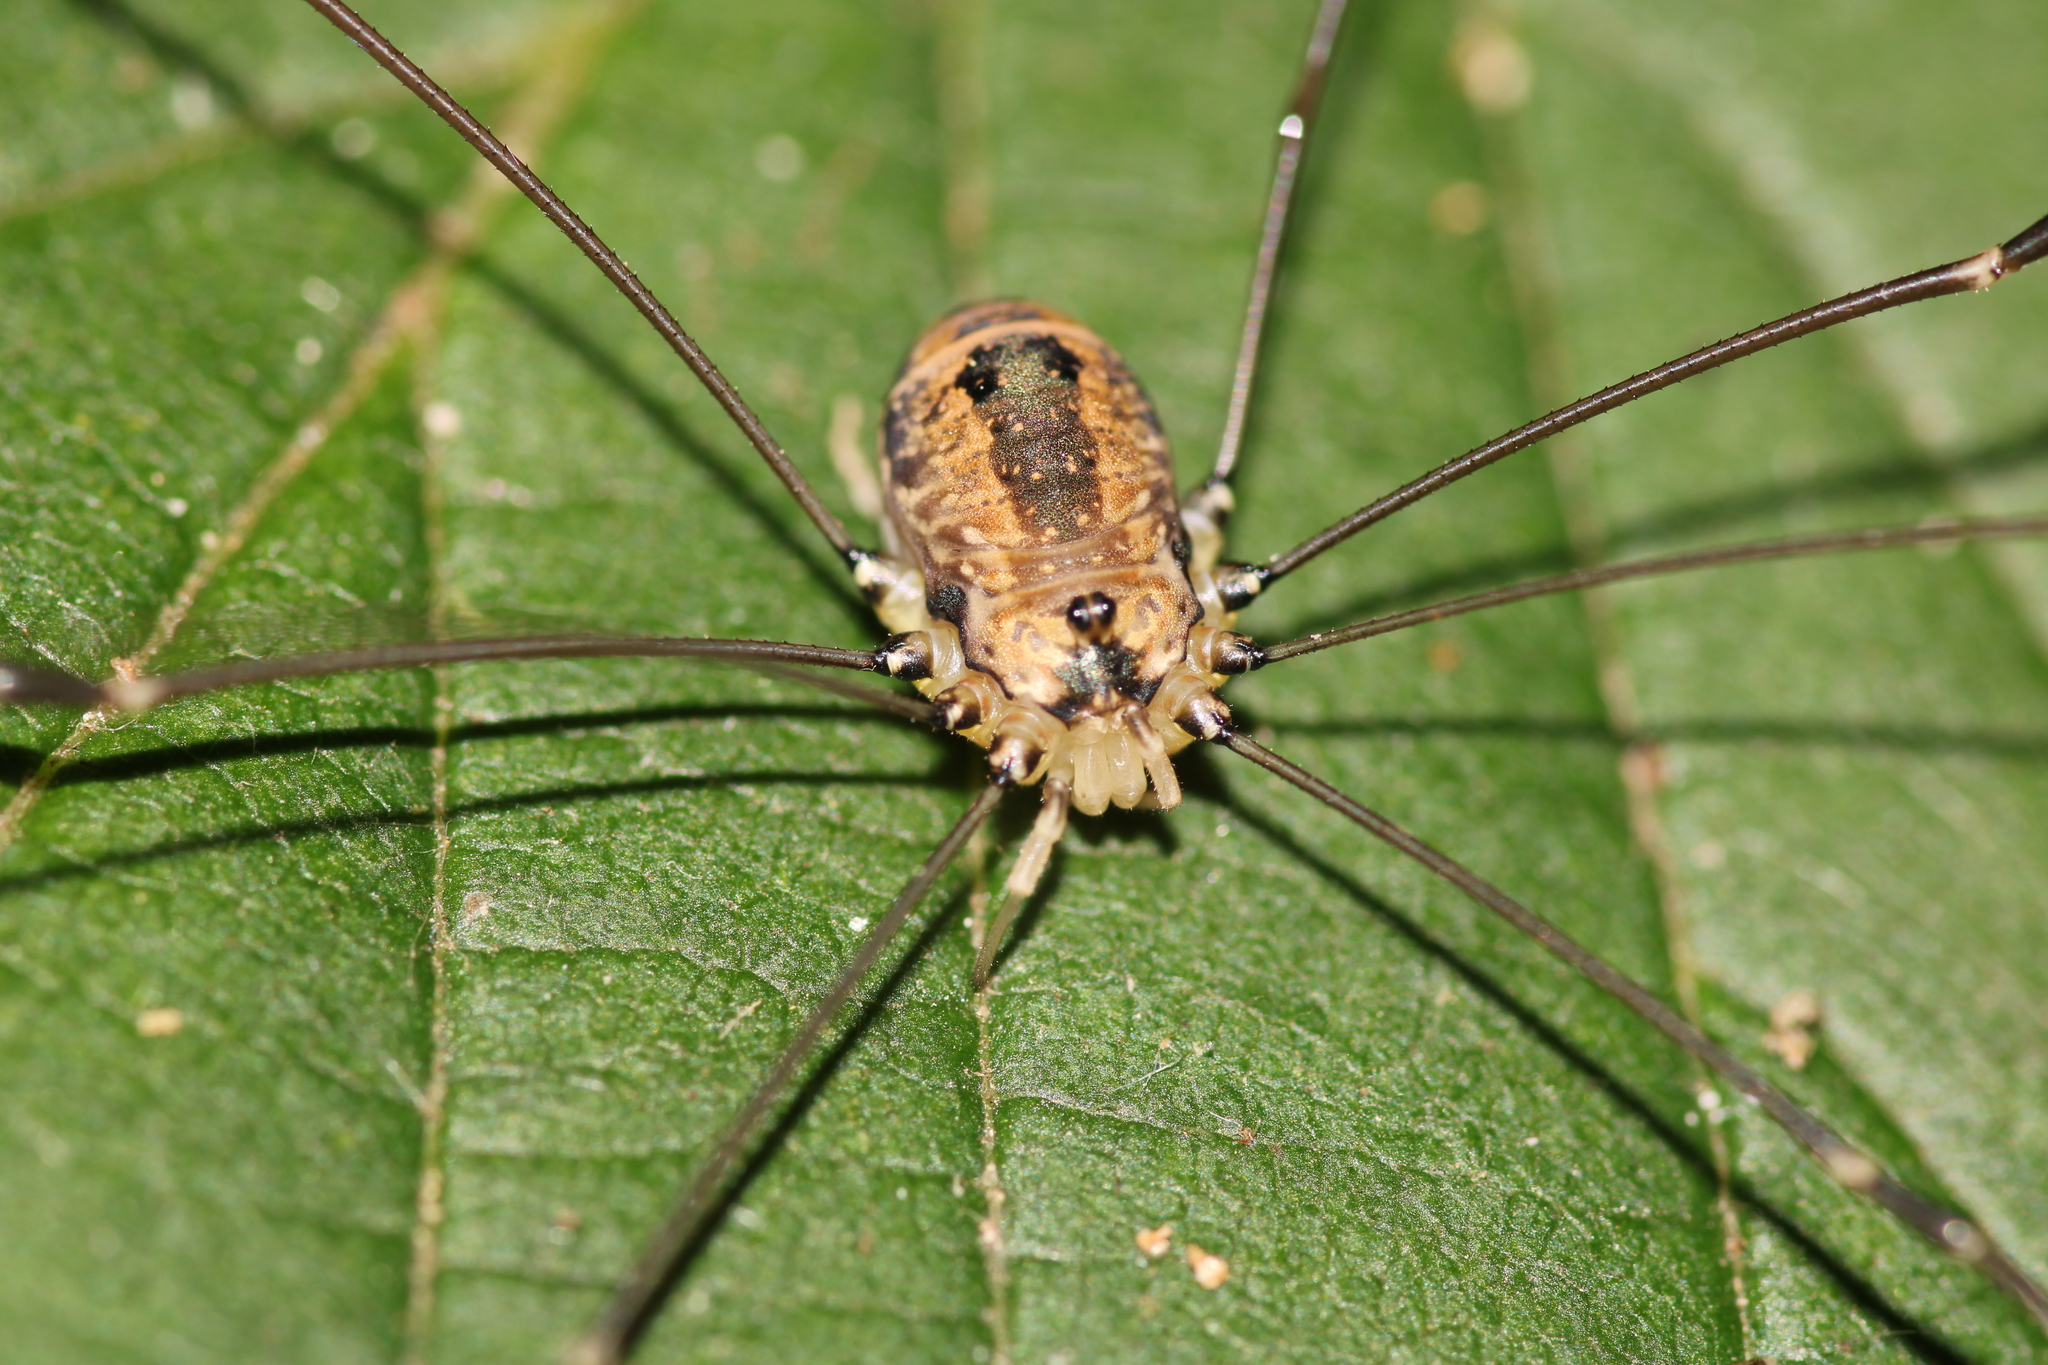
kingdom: Animalia
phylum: Arthropoda
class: Arachnida
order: Opiliones
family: Sclerosomatidae
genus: Leiobunum
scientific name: Leiobunum rotundum
